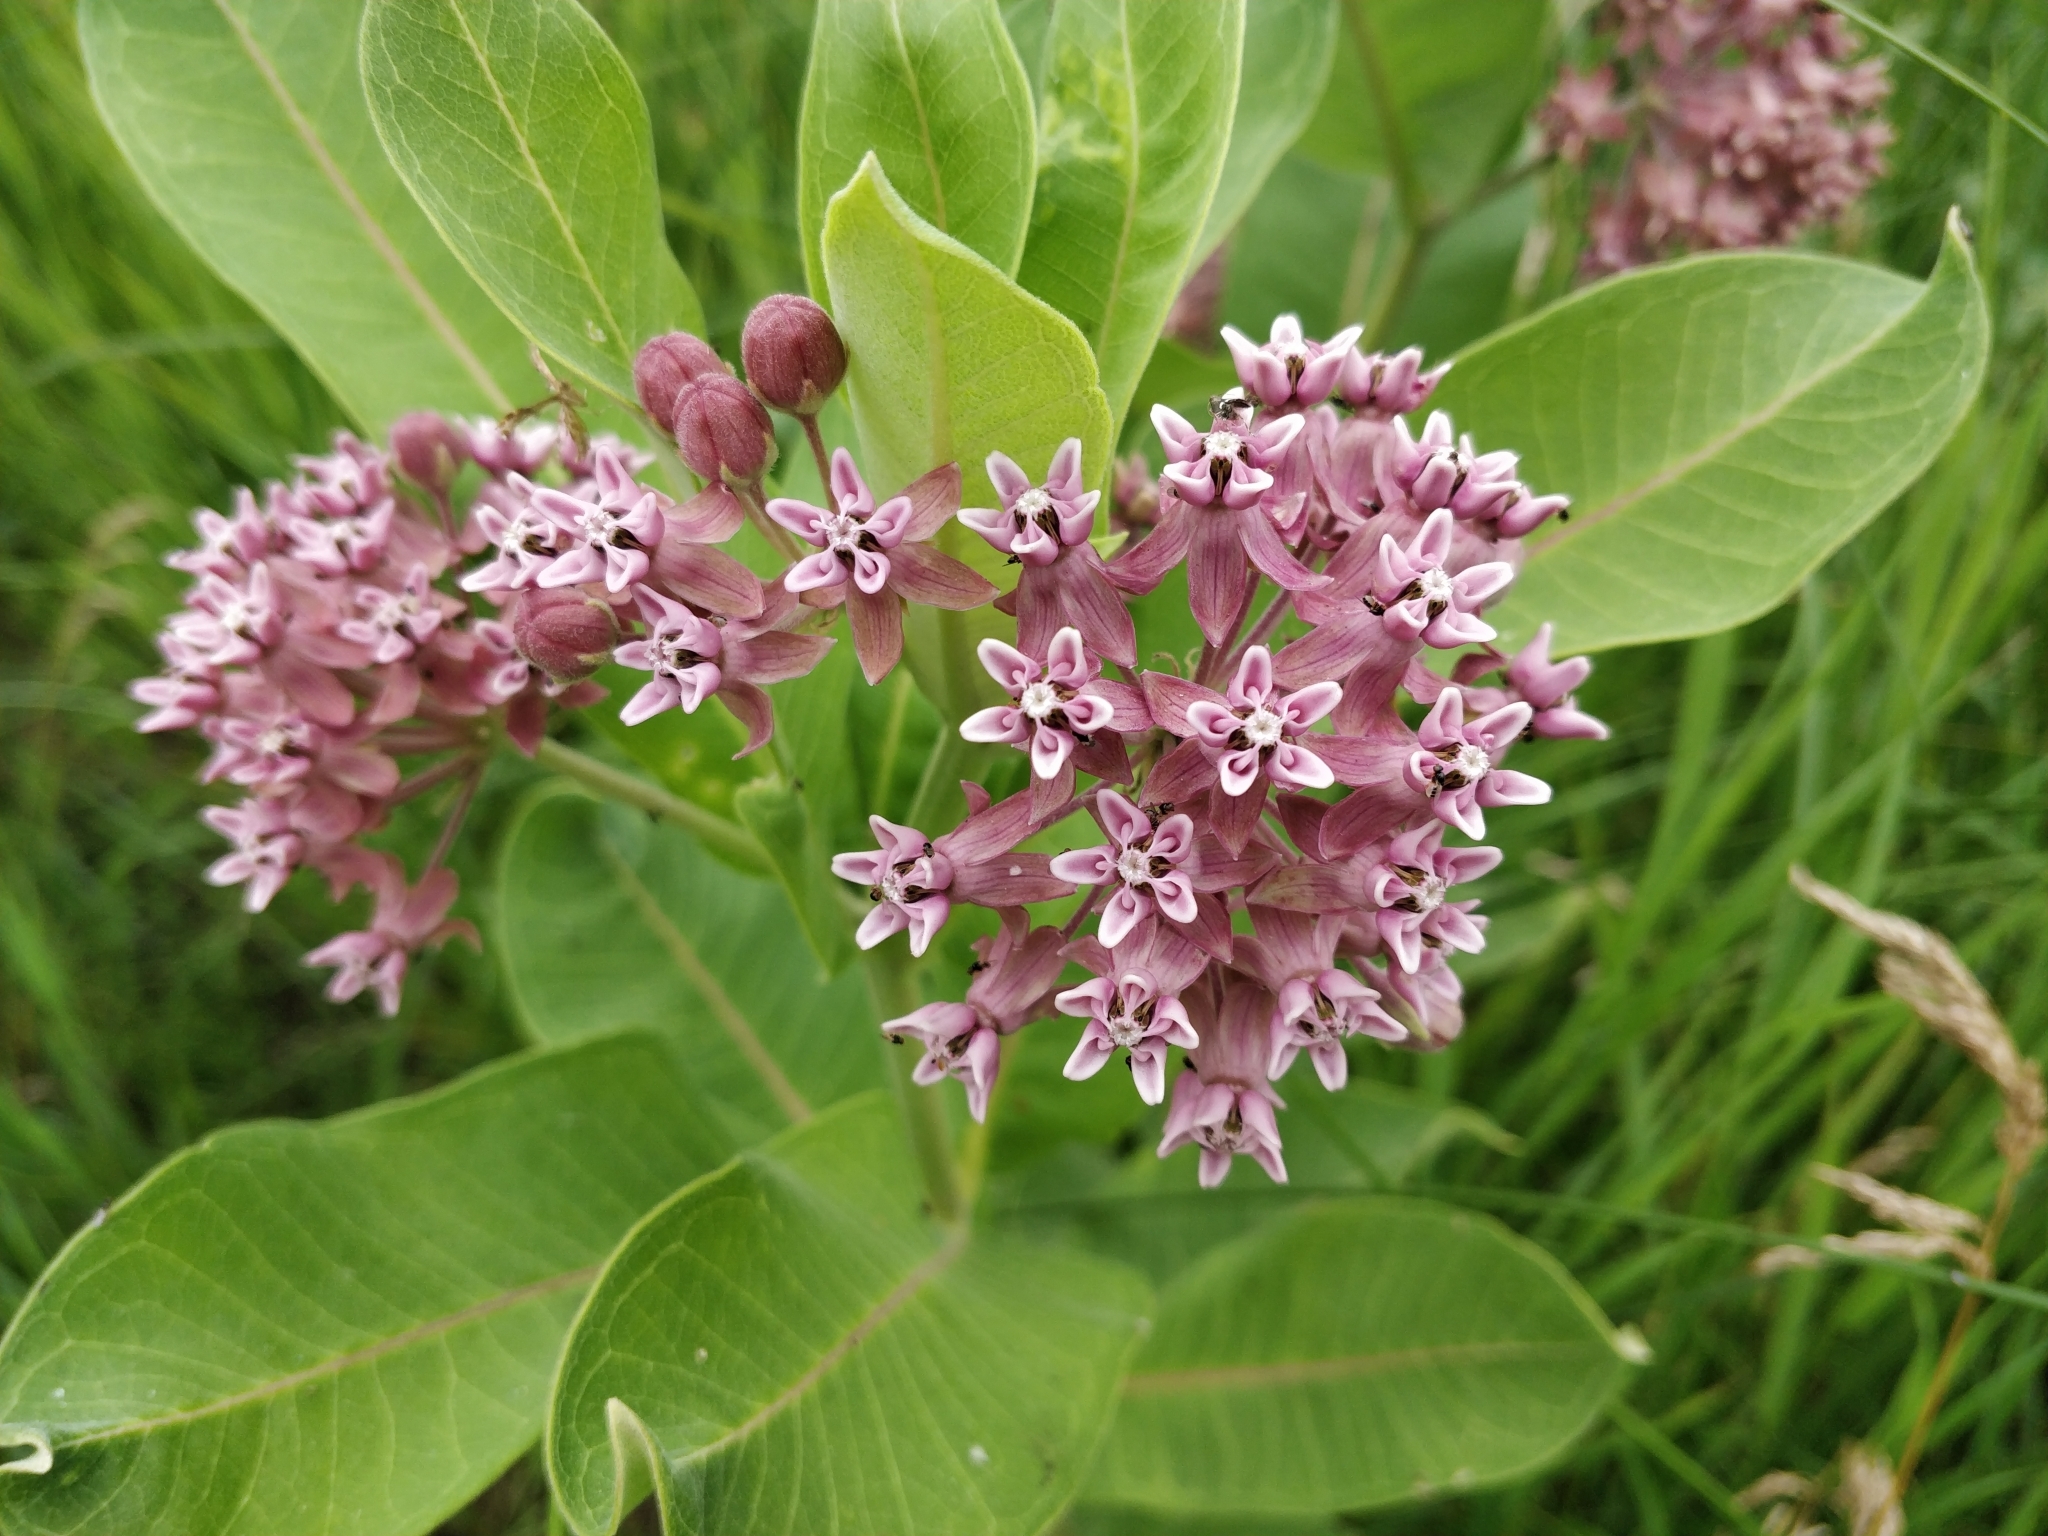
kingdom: Plantae
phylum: Tracheophyta
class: Magnoliopsida
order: Gentianales
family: Apocynaceae
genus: Asclepias
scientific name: Asclepias syriaca
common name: Common milkweed
